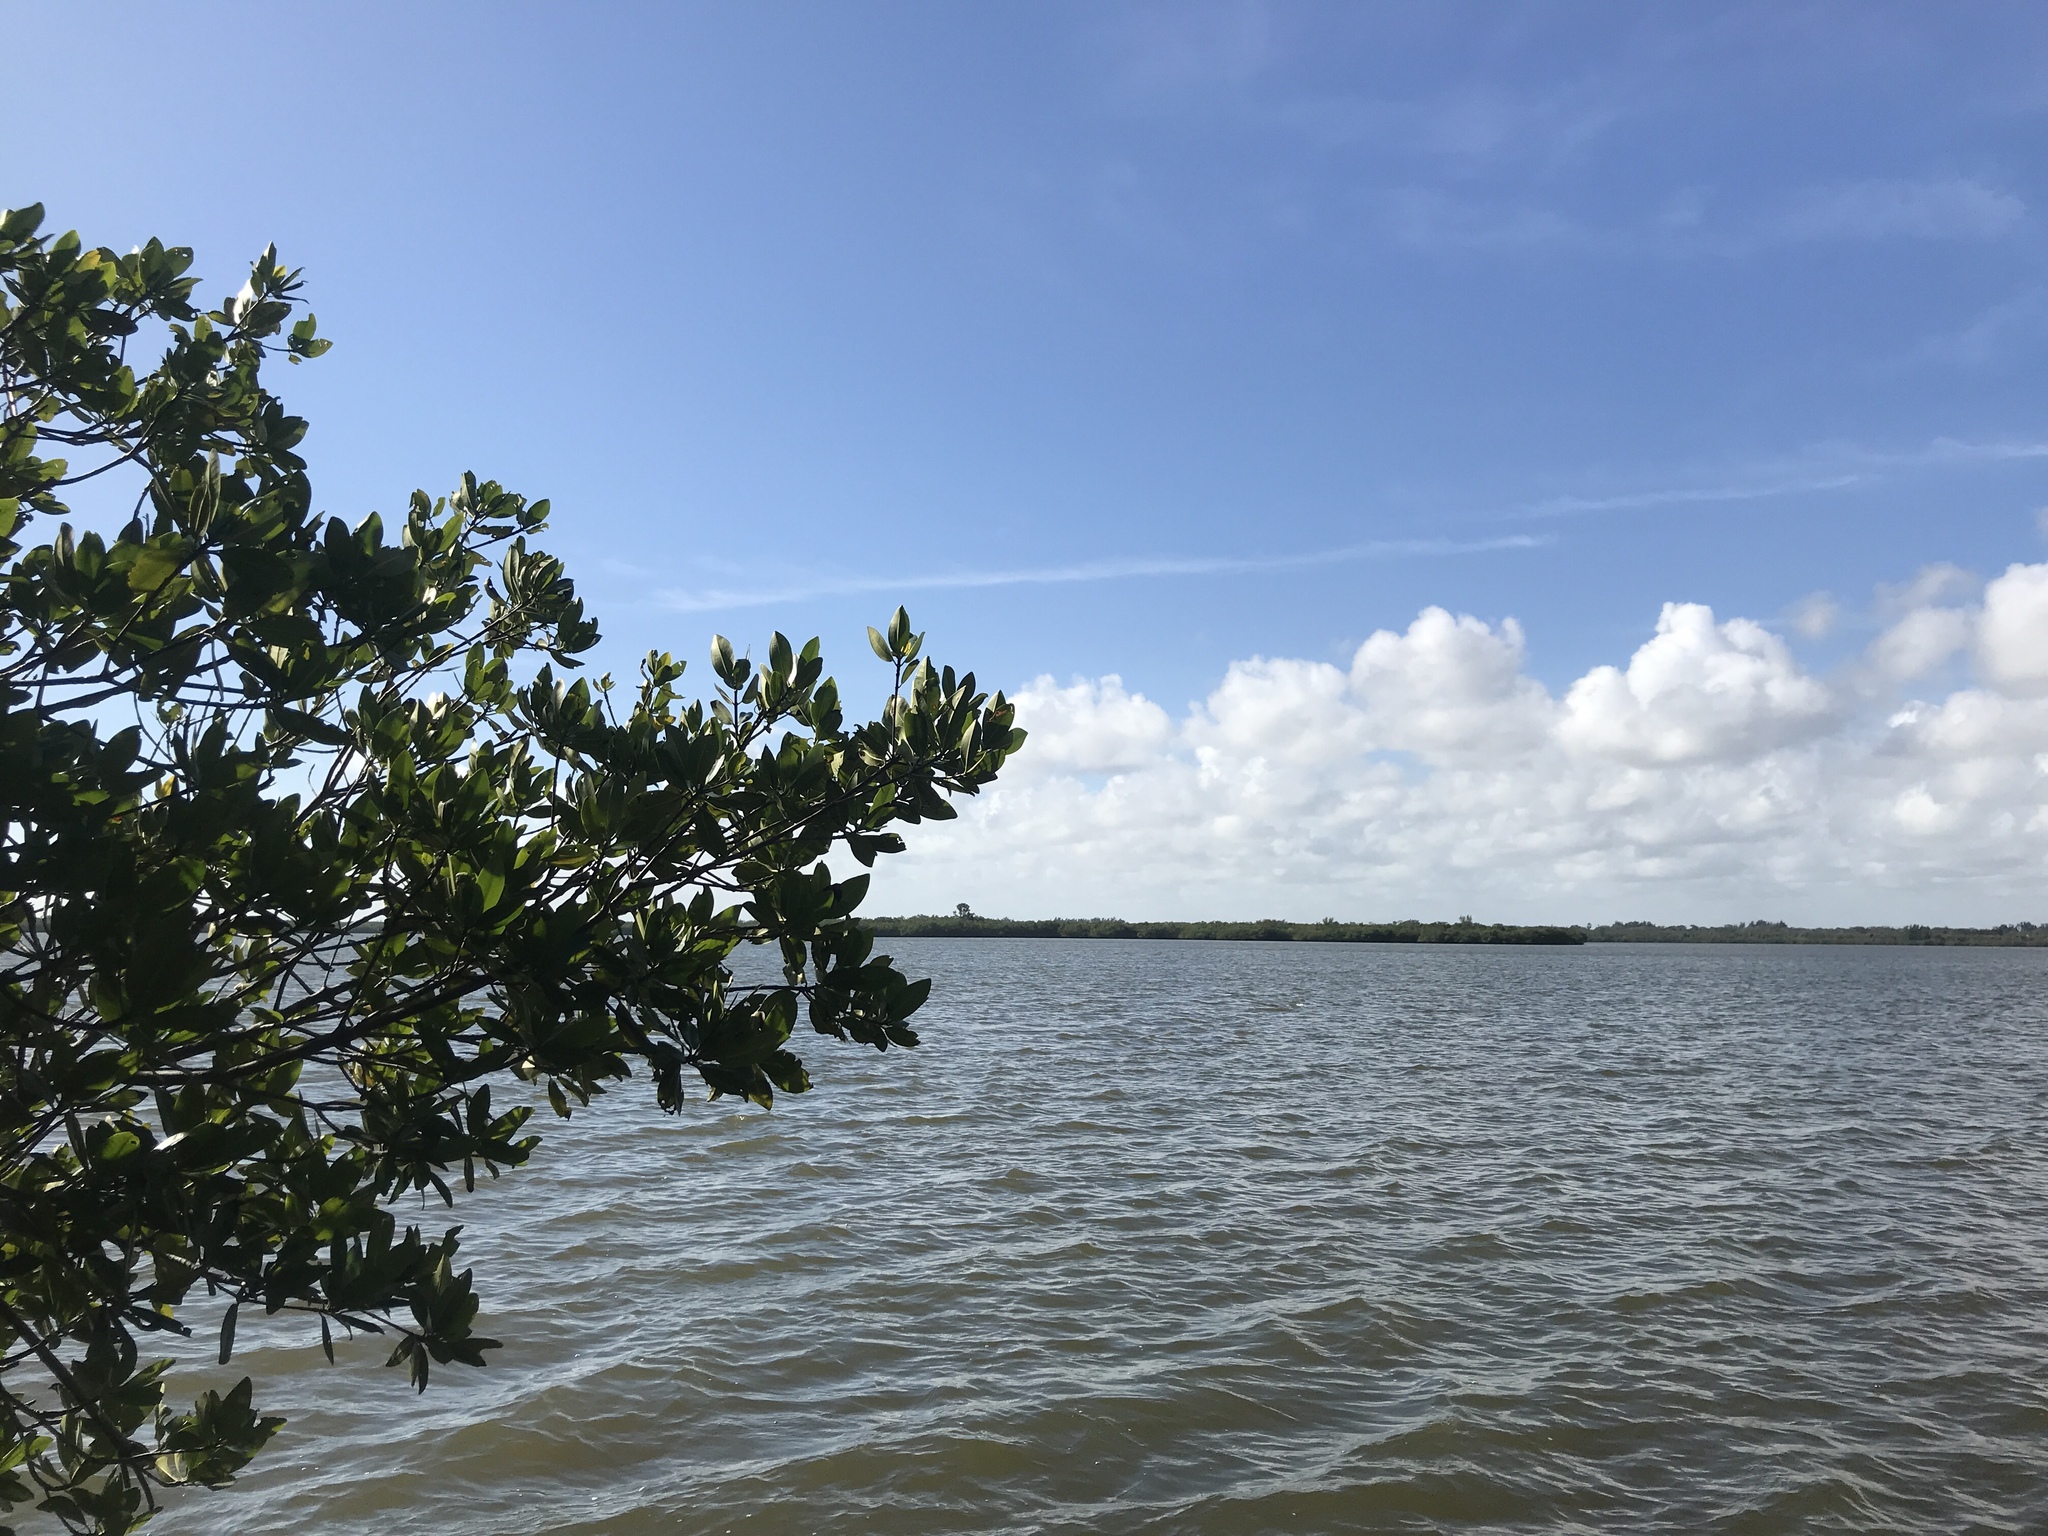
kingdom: Plantae
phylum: Tracheophyta
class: Magnoliopsida
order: Malpighiales
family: Rhizophoraceae
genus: Rhizophora
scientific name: Rhizophora mangle
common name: Red mangrove
